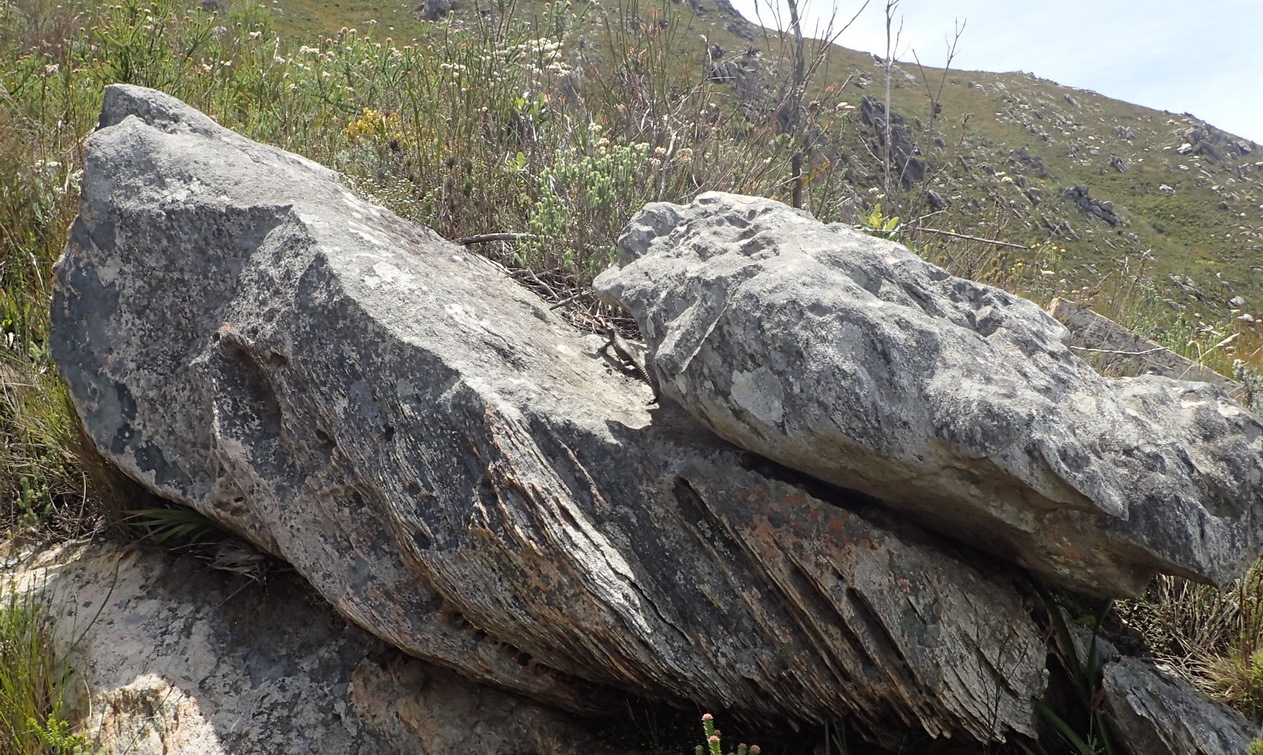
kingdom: Animalia
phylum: Chordata
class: Squamata
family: Cordylidae
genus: Pseudocordylus
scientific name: Pseudocordylus microlepidotus
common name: Cape crag lizard
